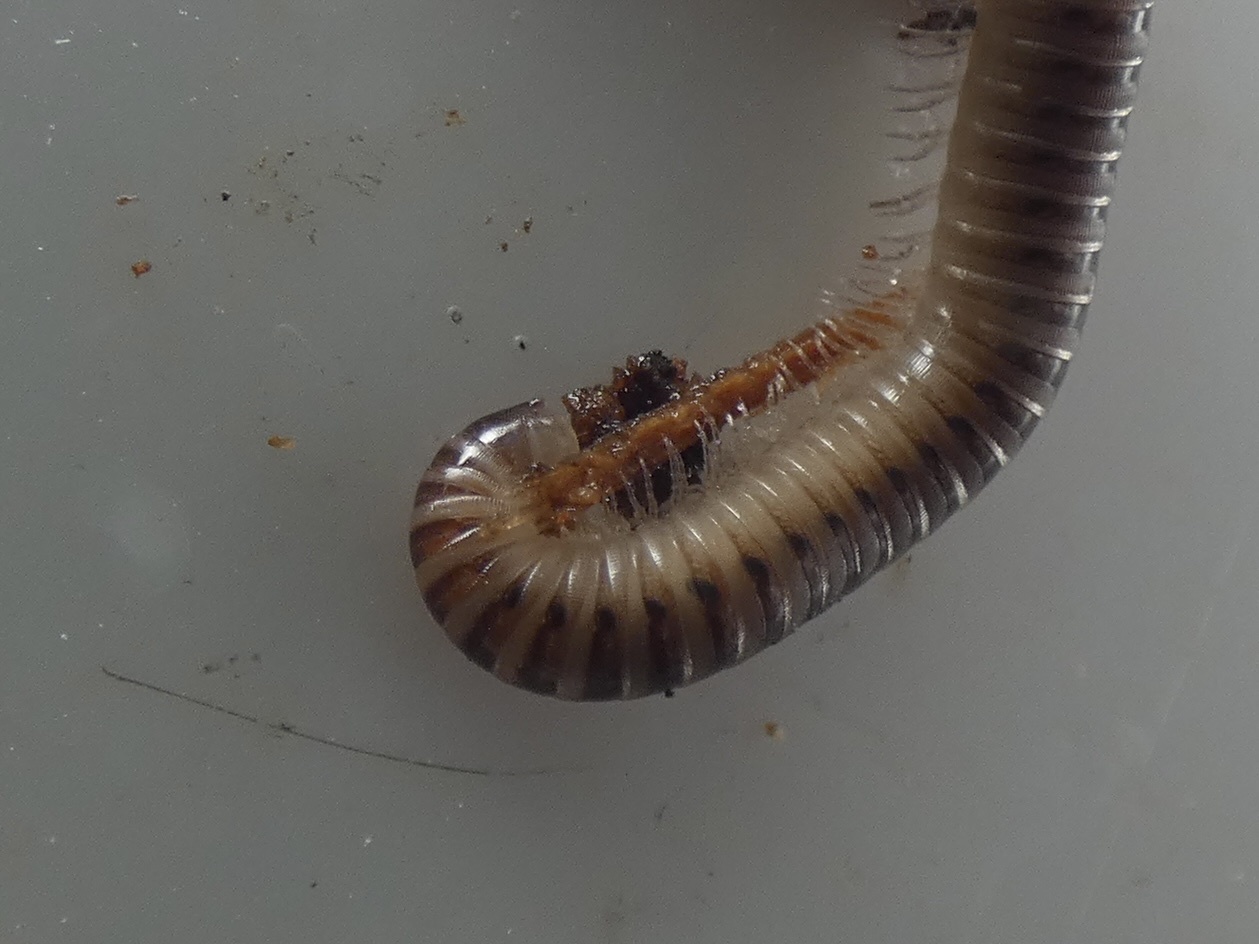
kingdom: Animalia
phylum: Arthropoda
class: Diplopoda
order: Julida
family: Julidae
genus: Cylindroiulus
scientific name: Cylindroiulus punctatus
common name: Blunt-tailed millipede
